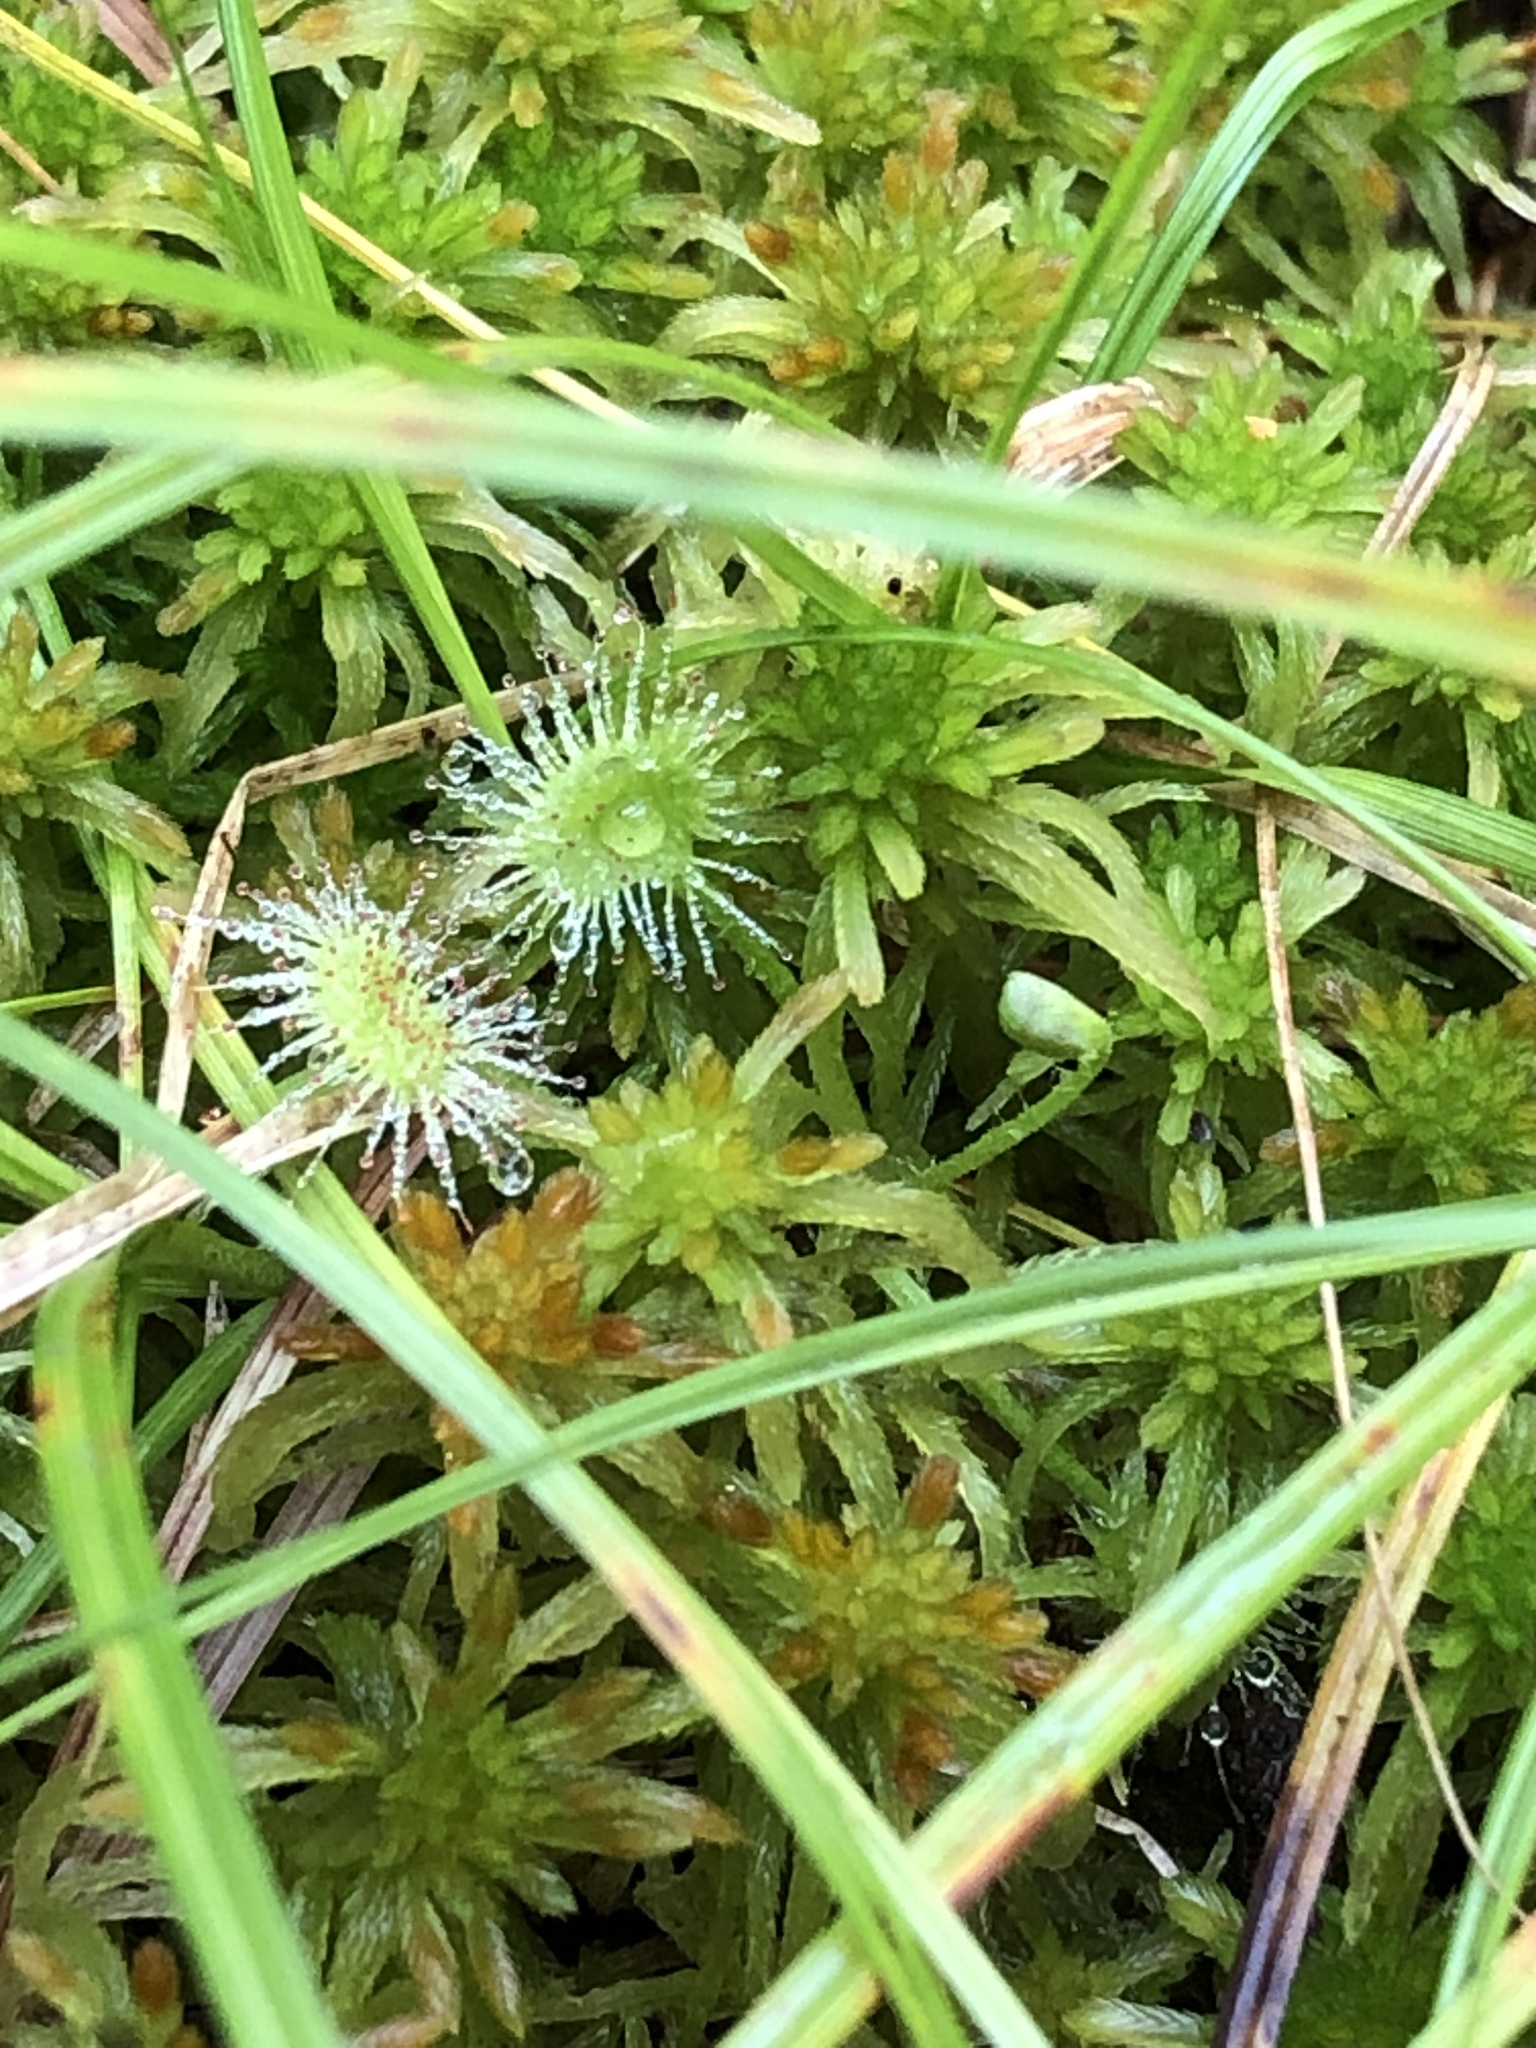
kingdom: Plantae
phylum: Tracheophyta
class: Magnoliopsida
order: Caryophyllales
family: Droseraceae
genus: Drosera
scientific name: Drosera rotundifolia
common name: Round-leaved sundew
